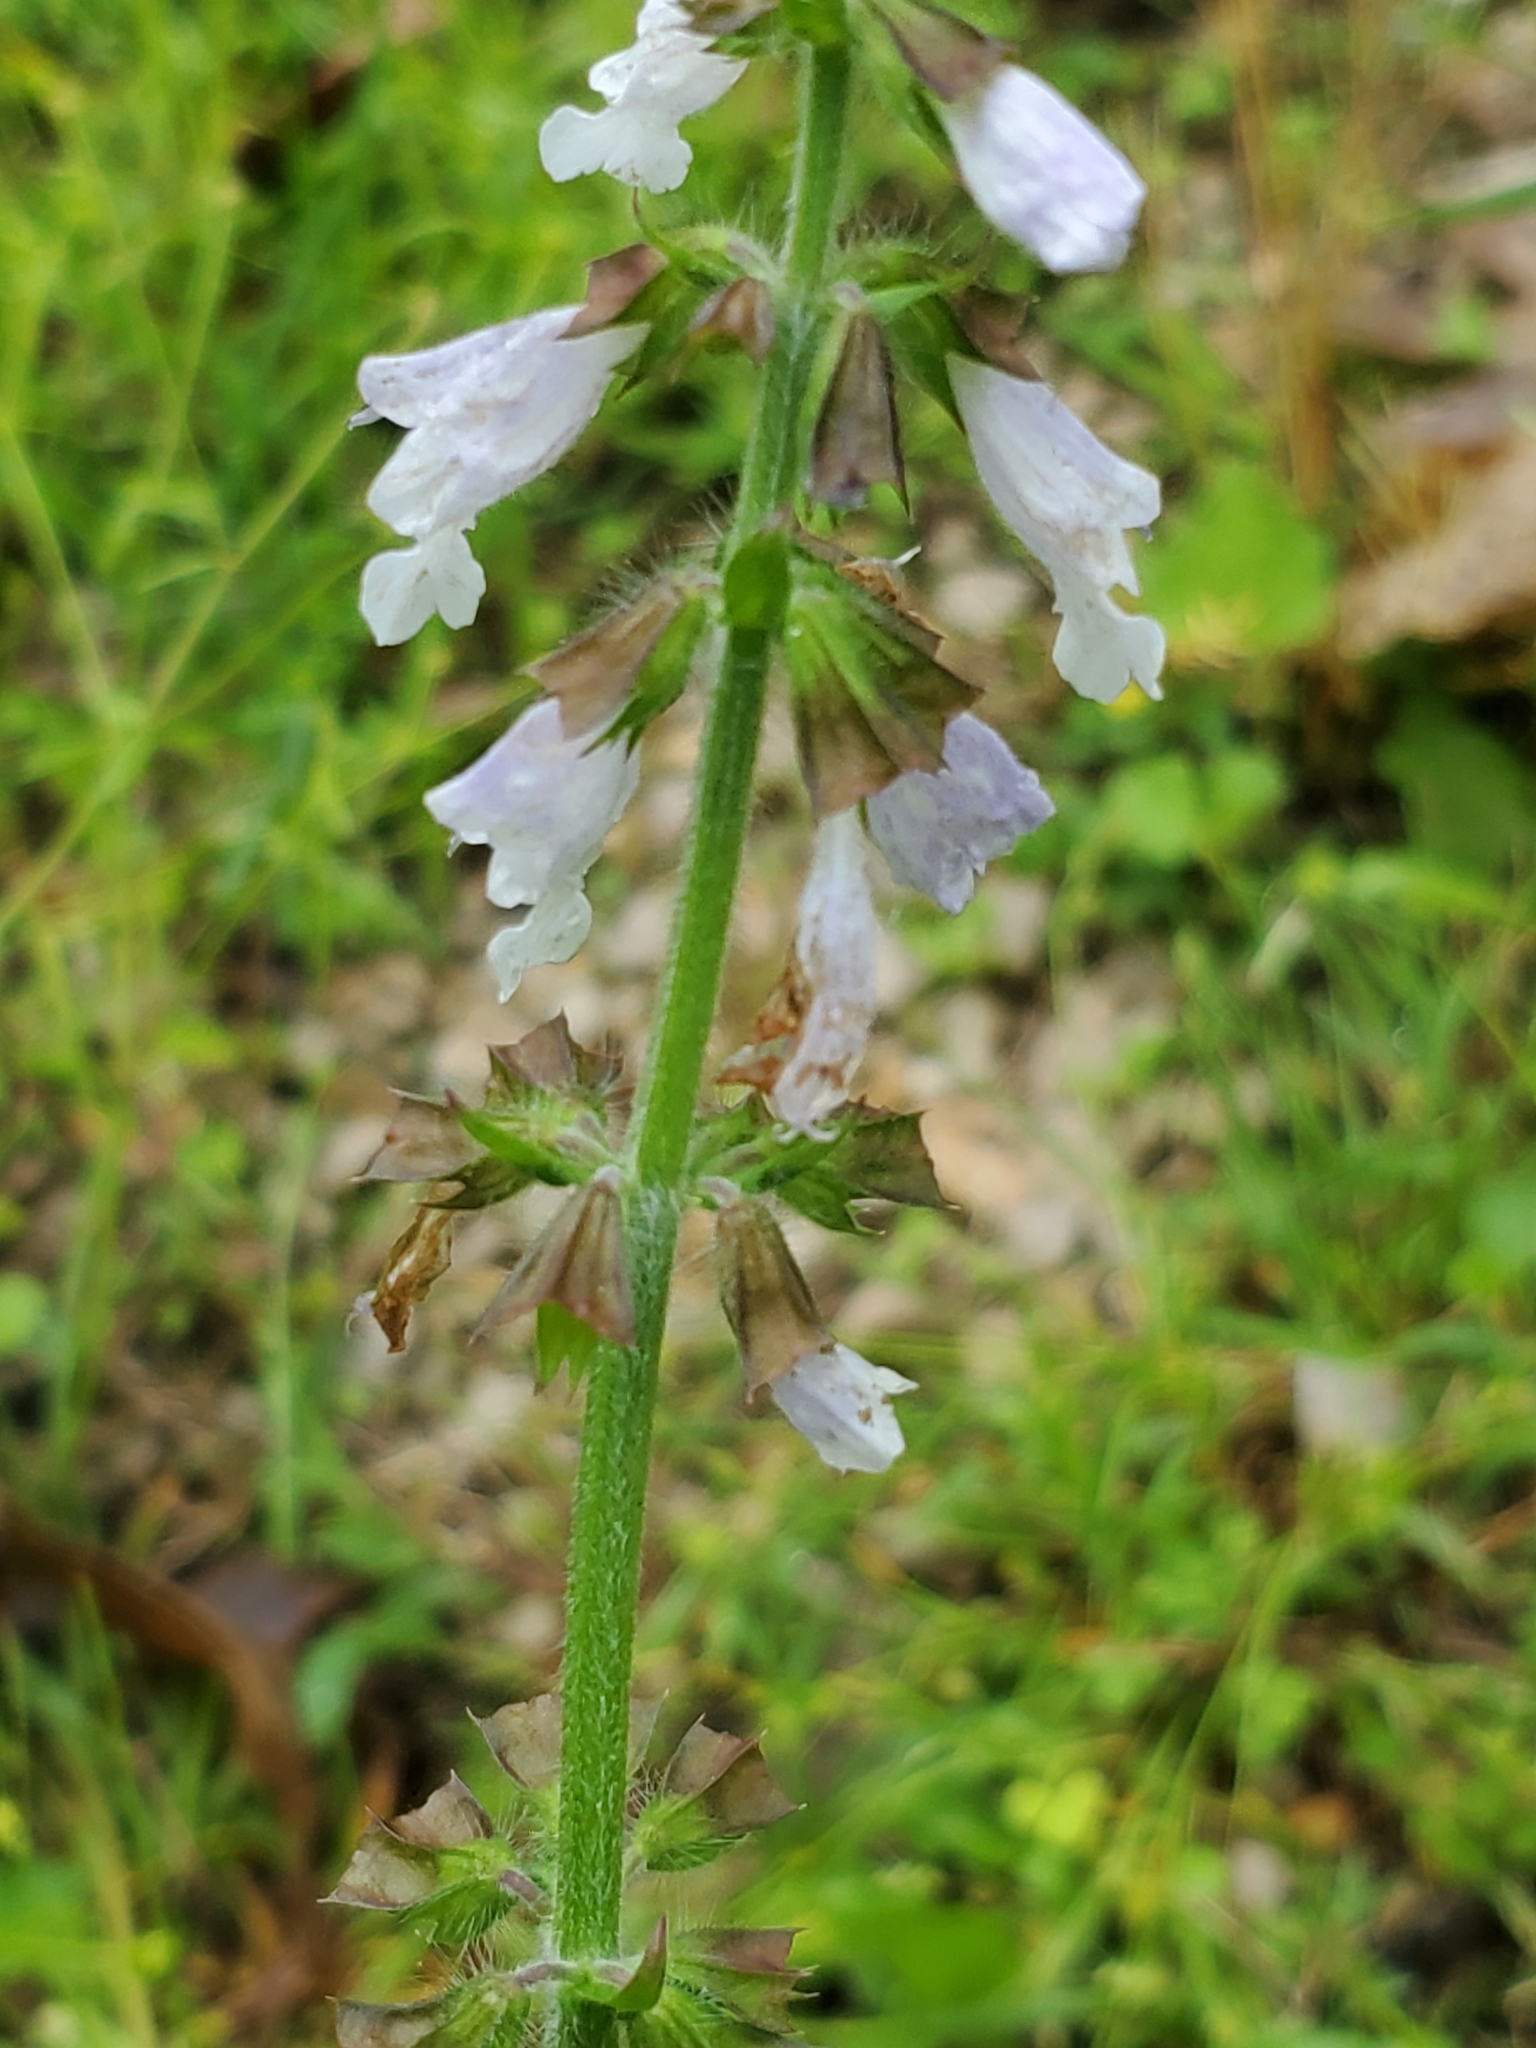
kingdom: Plantae
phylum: Tracheophyta
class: Magnoliopsida
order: Lamiales
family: Lamiaceae
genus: Salvia
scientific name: Salvia lyrata
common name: Cancerweed
